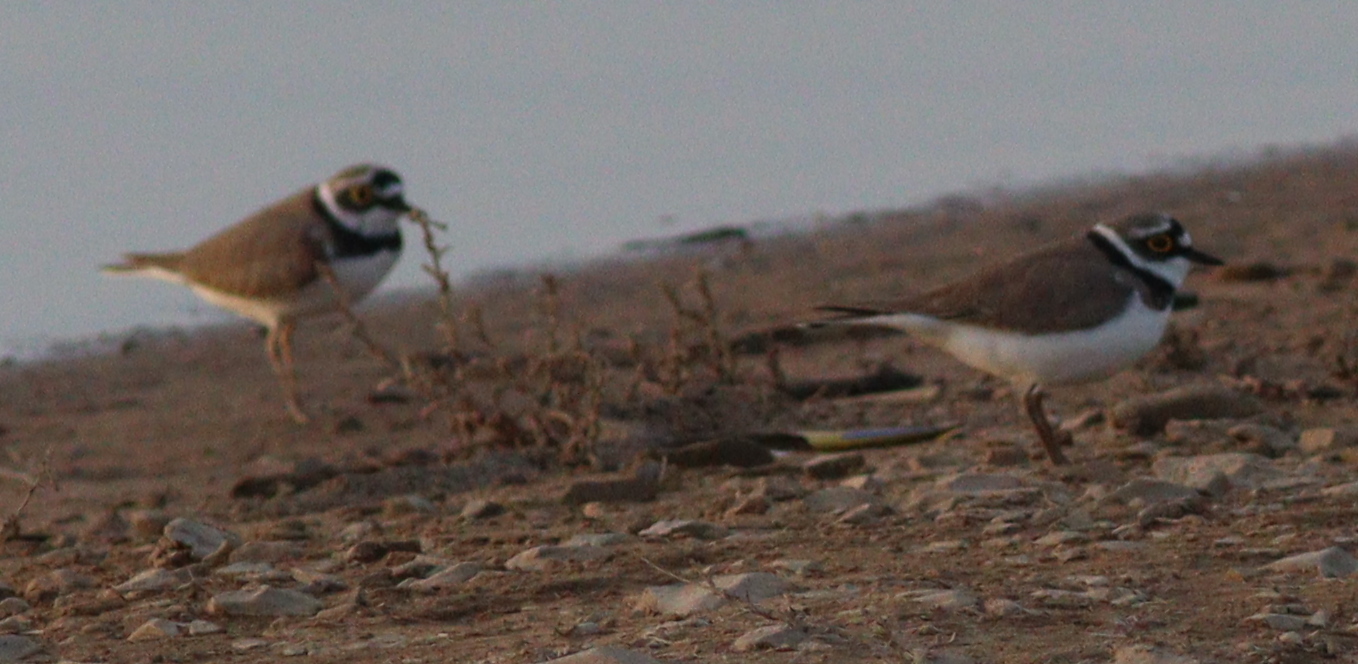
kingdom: Animalia
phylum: Chordata
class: Aves
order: Charadriiformes
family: Charadriidae
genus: Charadrius
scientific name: Charadrius dubius
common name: Little ringed plover
